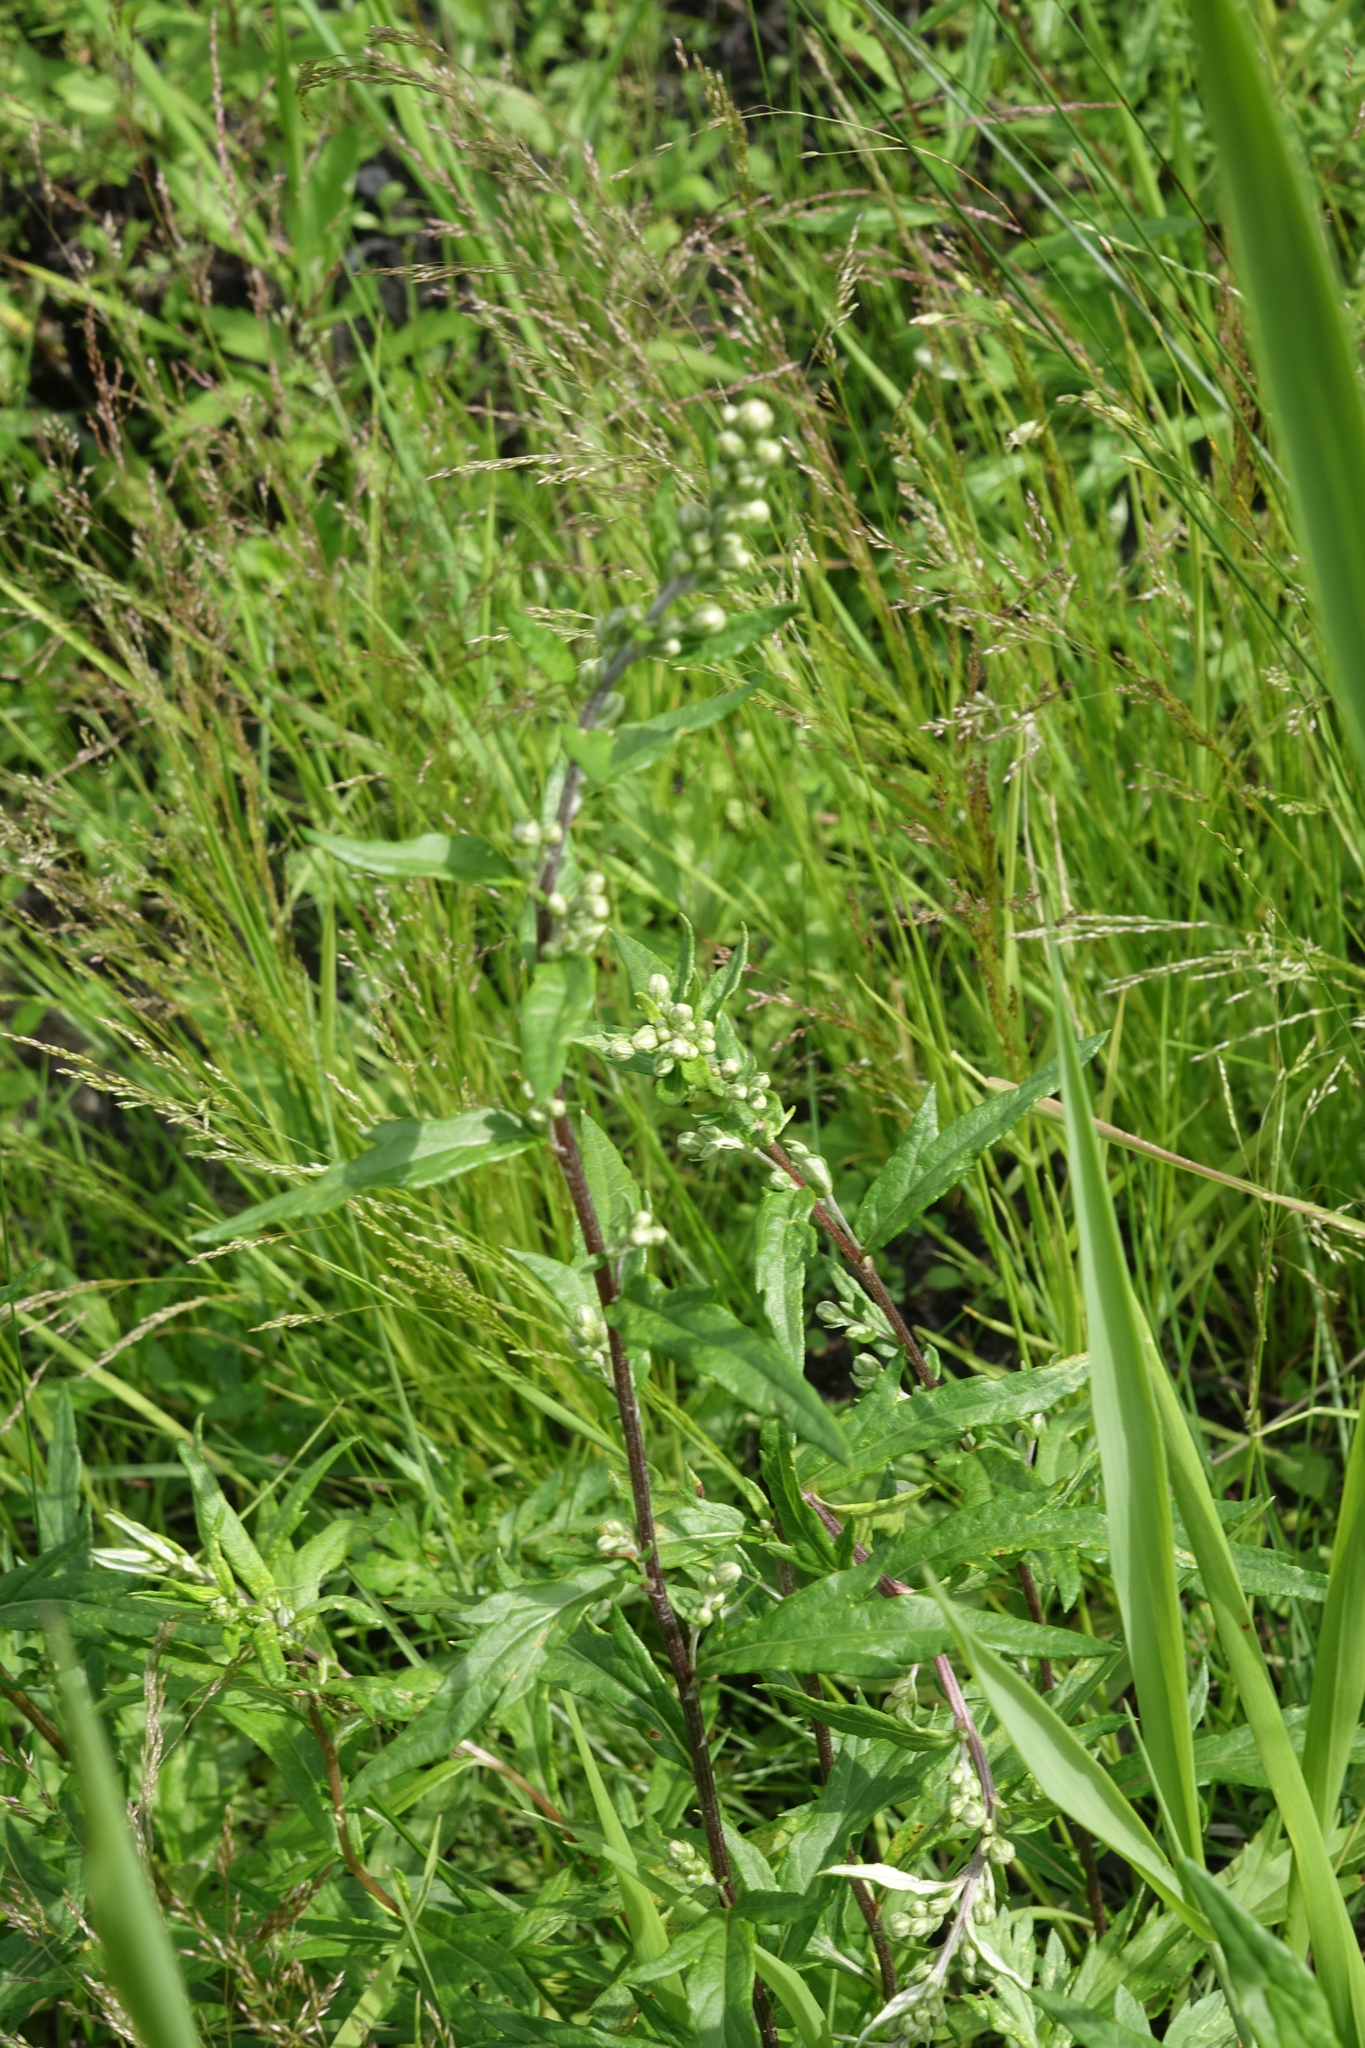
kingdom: Plantae
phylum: Tracheophyta
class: Magnoliopsida
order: Asterales
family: Asteraceae
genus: Artemisia
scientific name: Artemisia integrifolia
